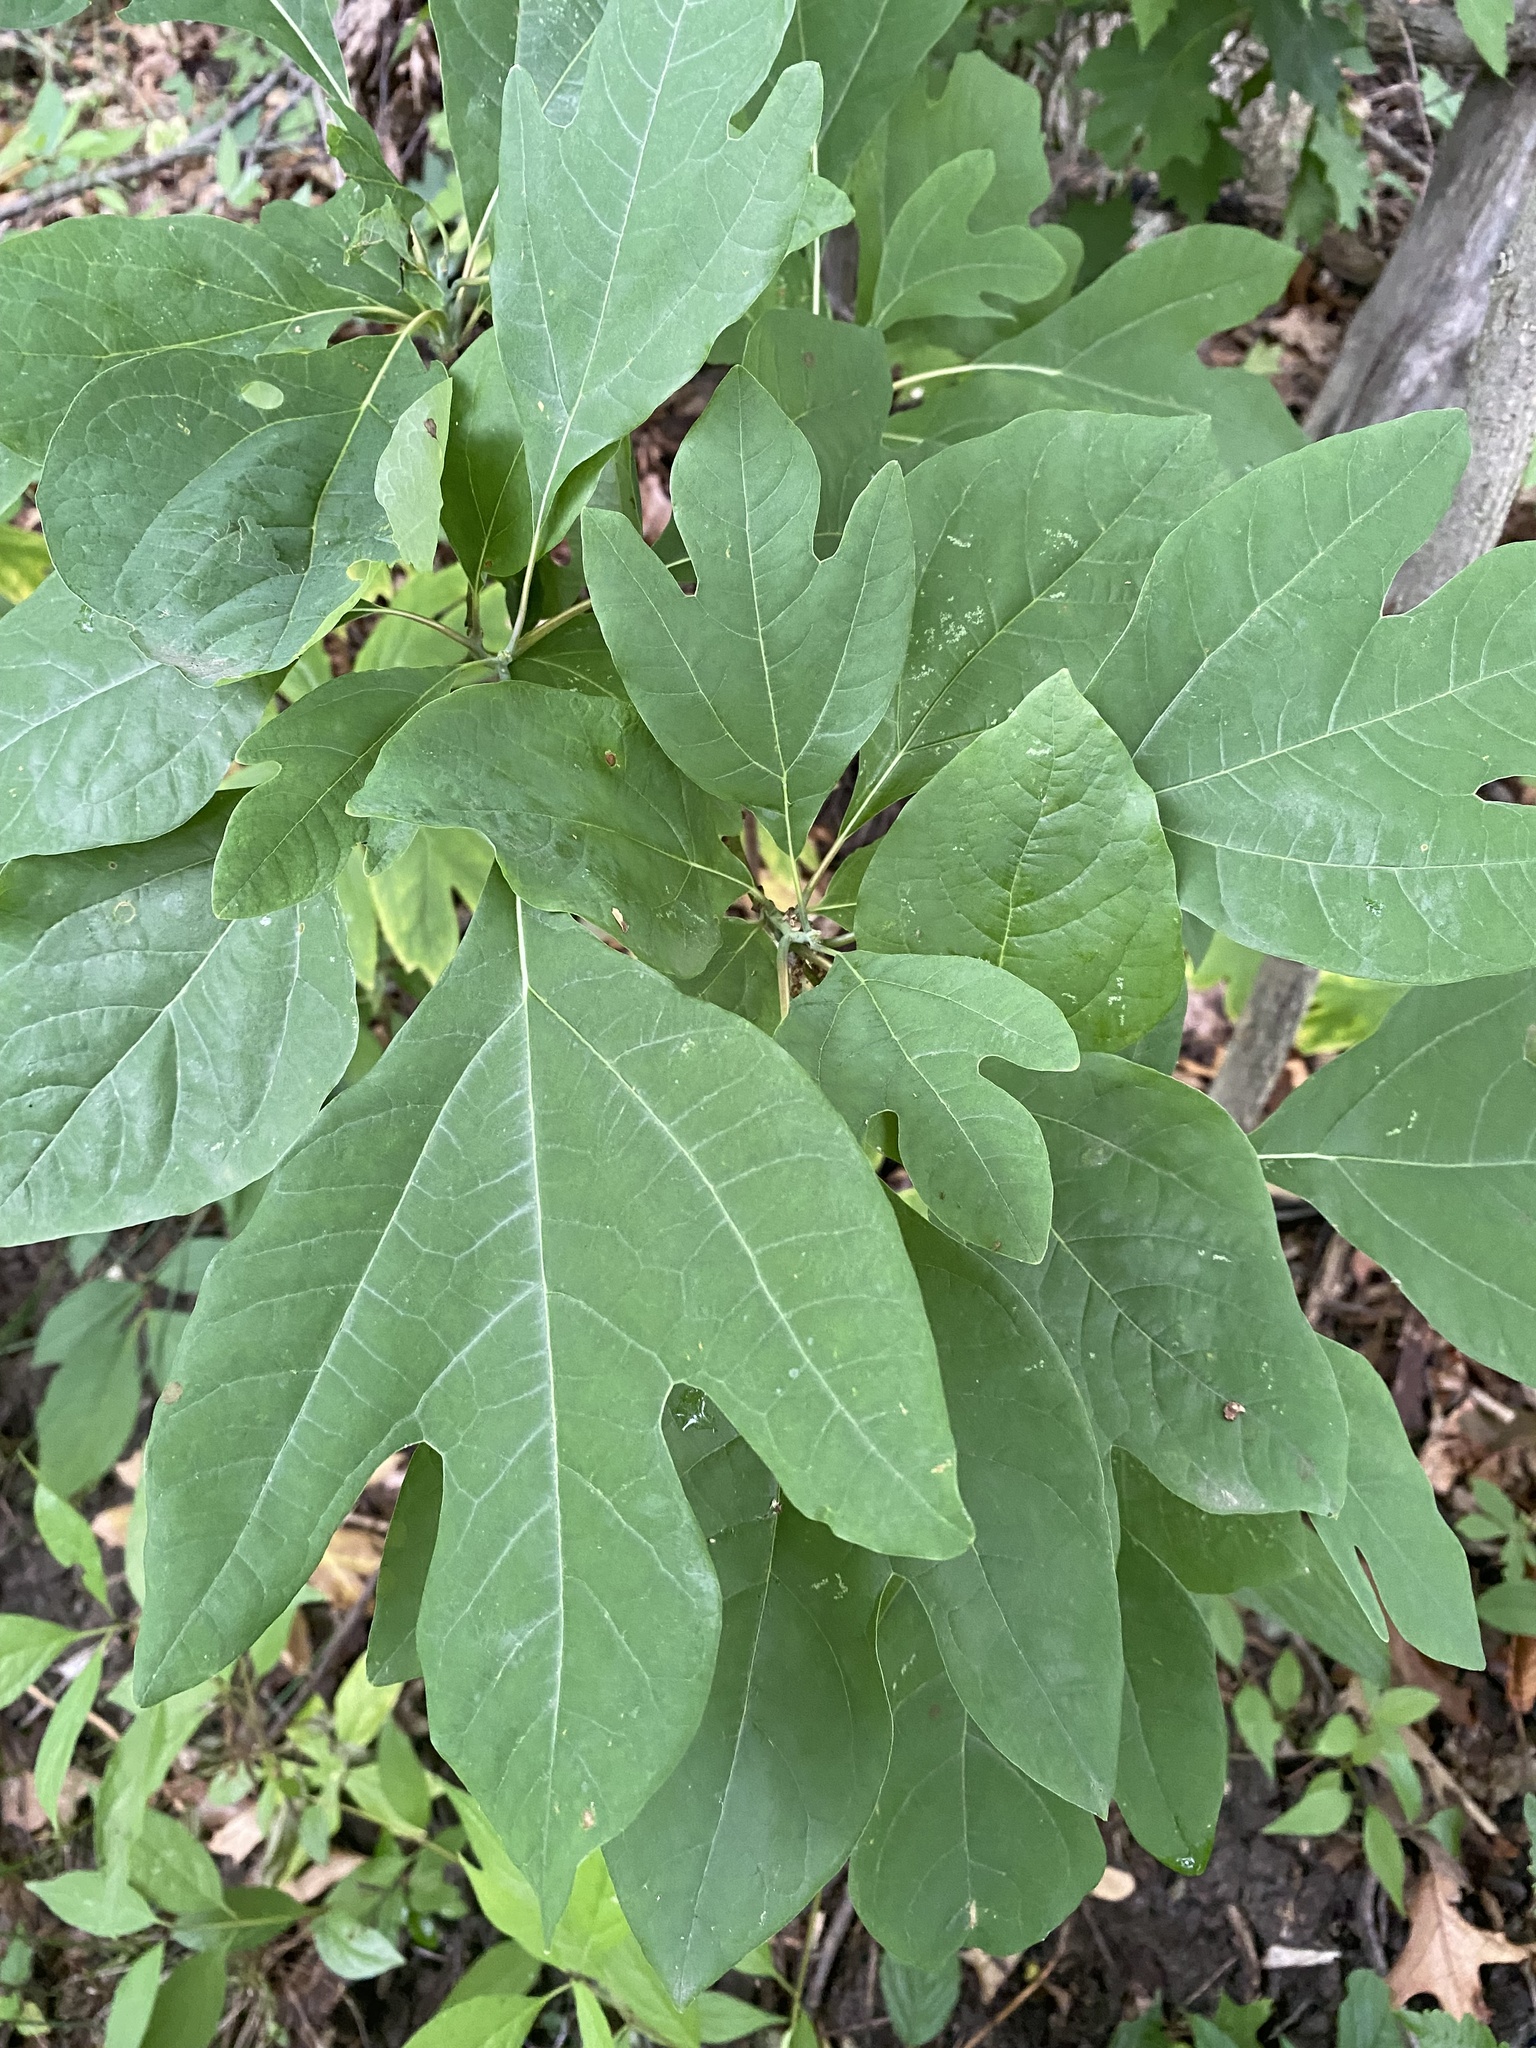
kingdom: Plantae
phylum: Tracheophyta
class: Magnoliopsida
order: Laurales
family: Lauraceae
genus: Sassafras
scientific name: Sassafras albidum
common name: Sassafras
